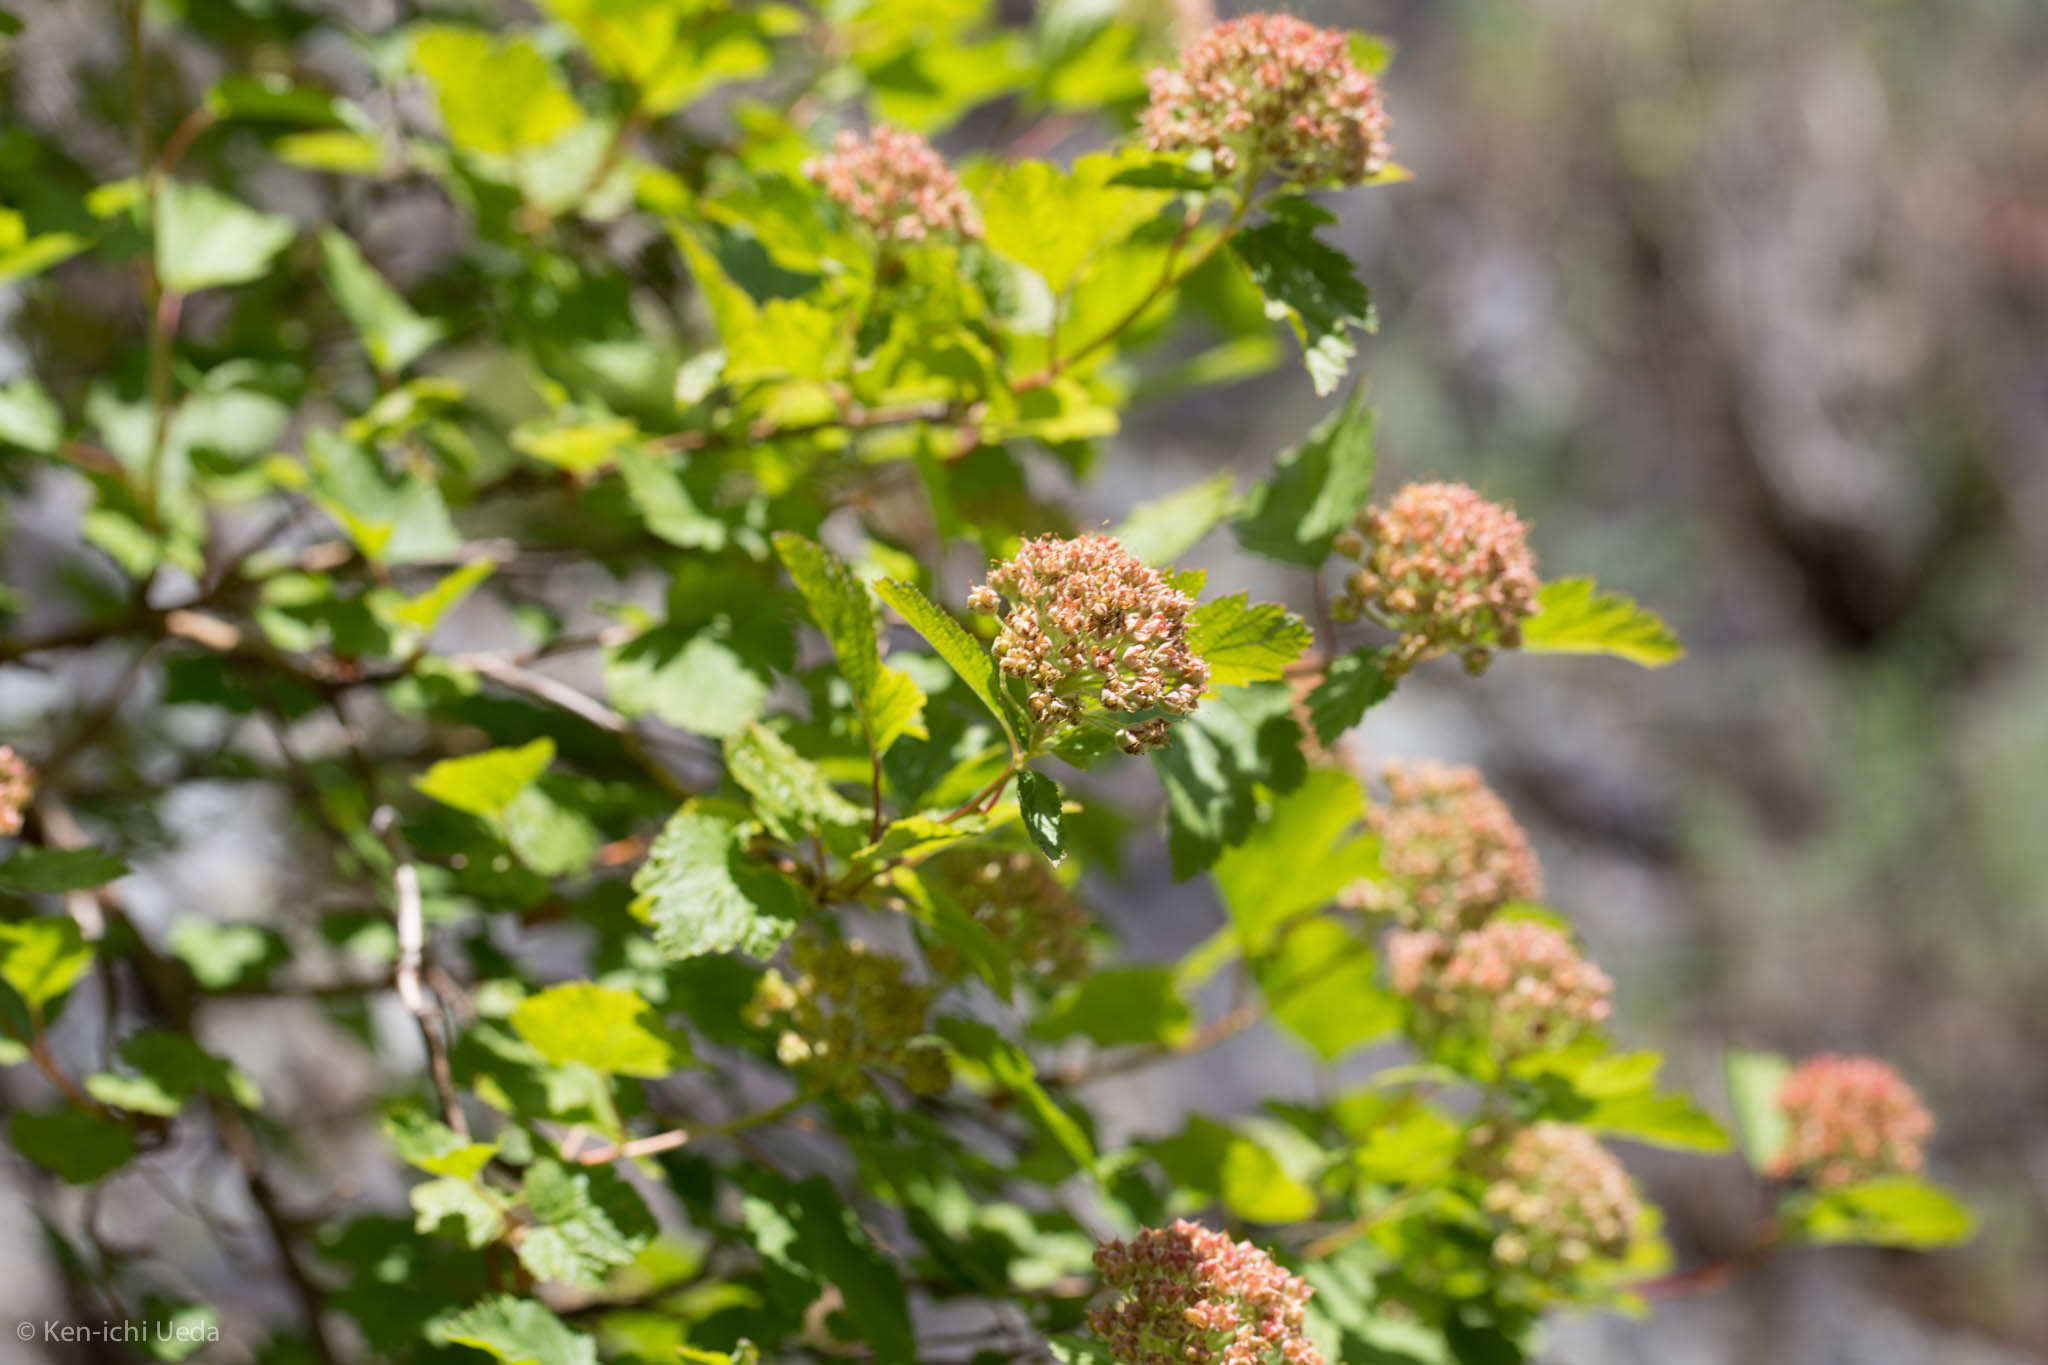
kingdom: Plantae
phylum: Tracheophyta
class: Magnoliopsida
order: Rosales
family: Rosaceae
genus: Physocarpus
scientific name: Physocarpus capitatus
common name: Pacific ninebark
